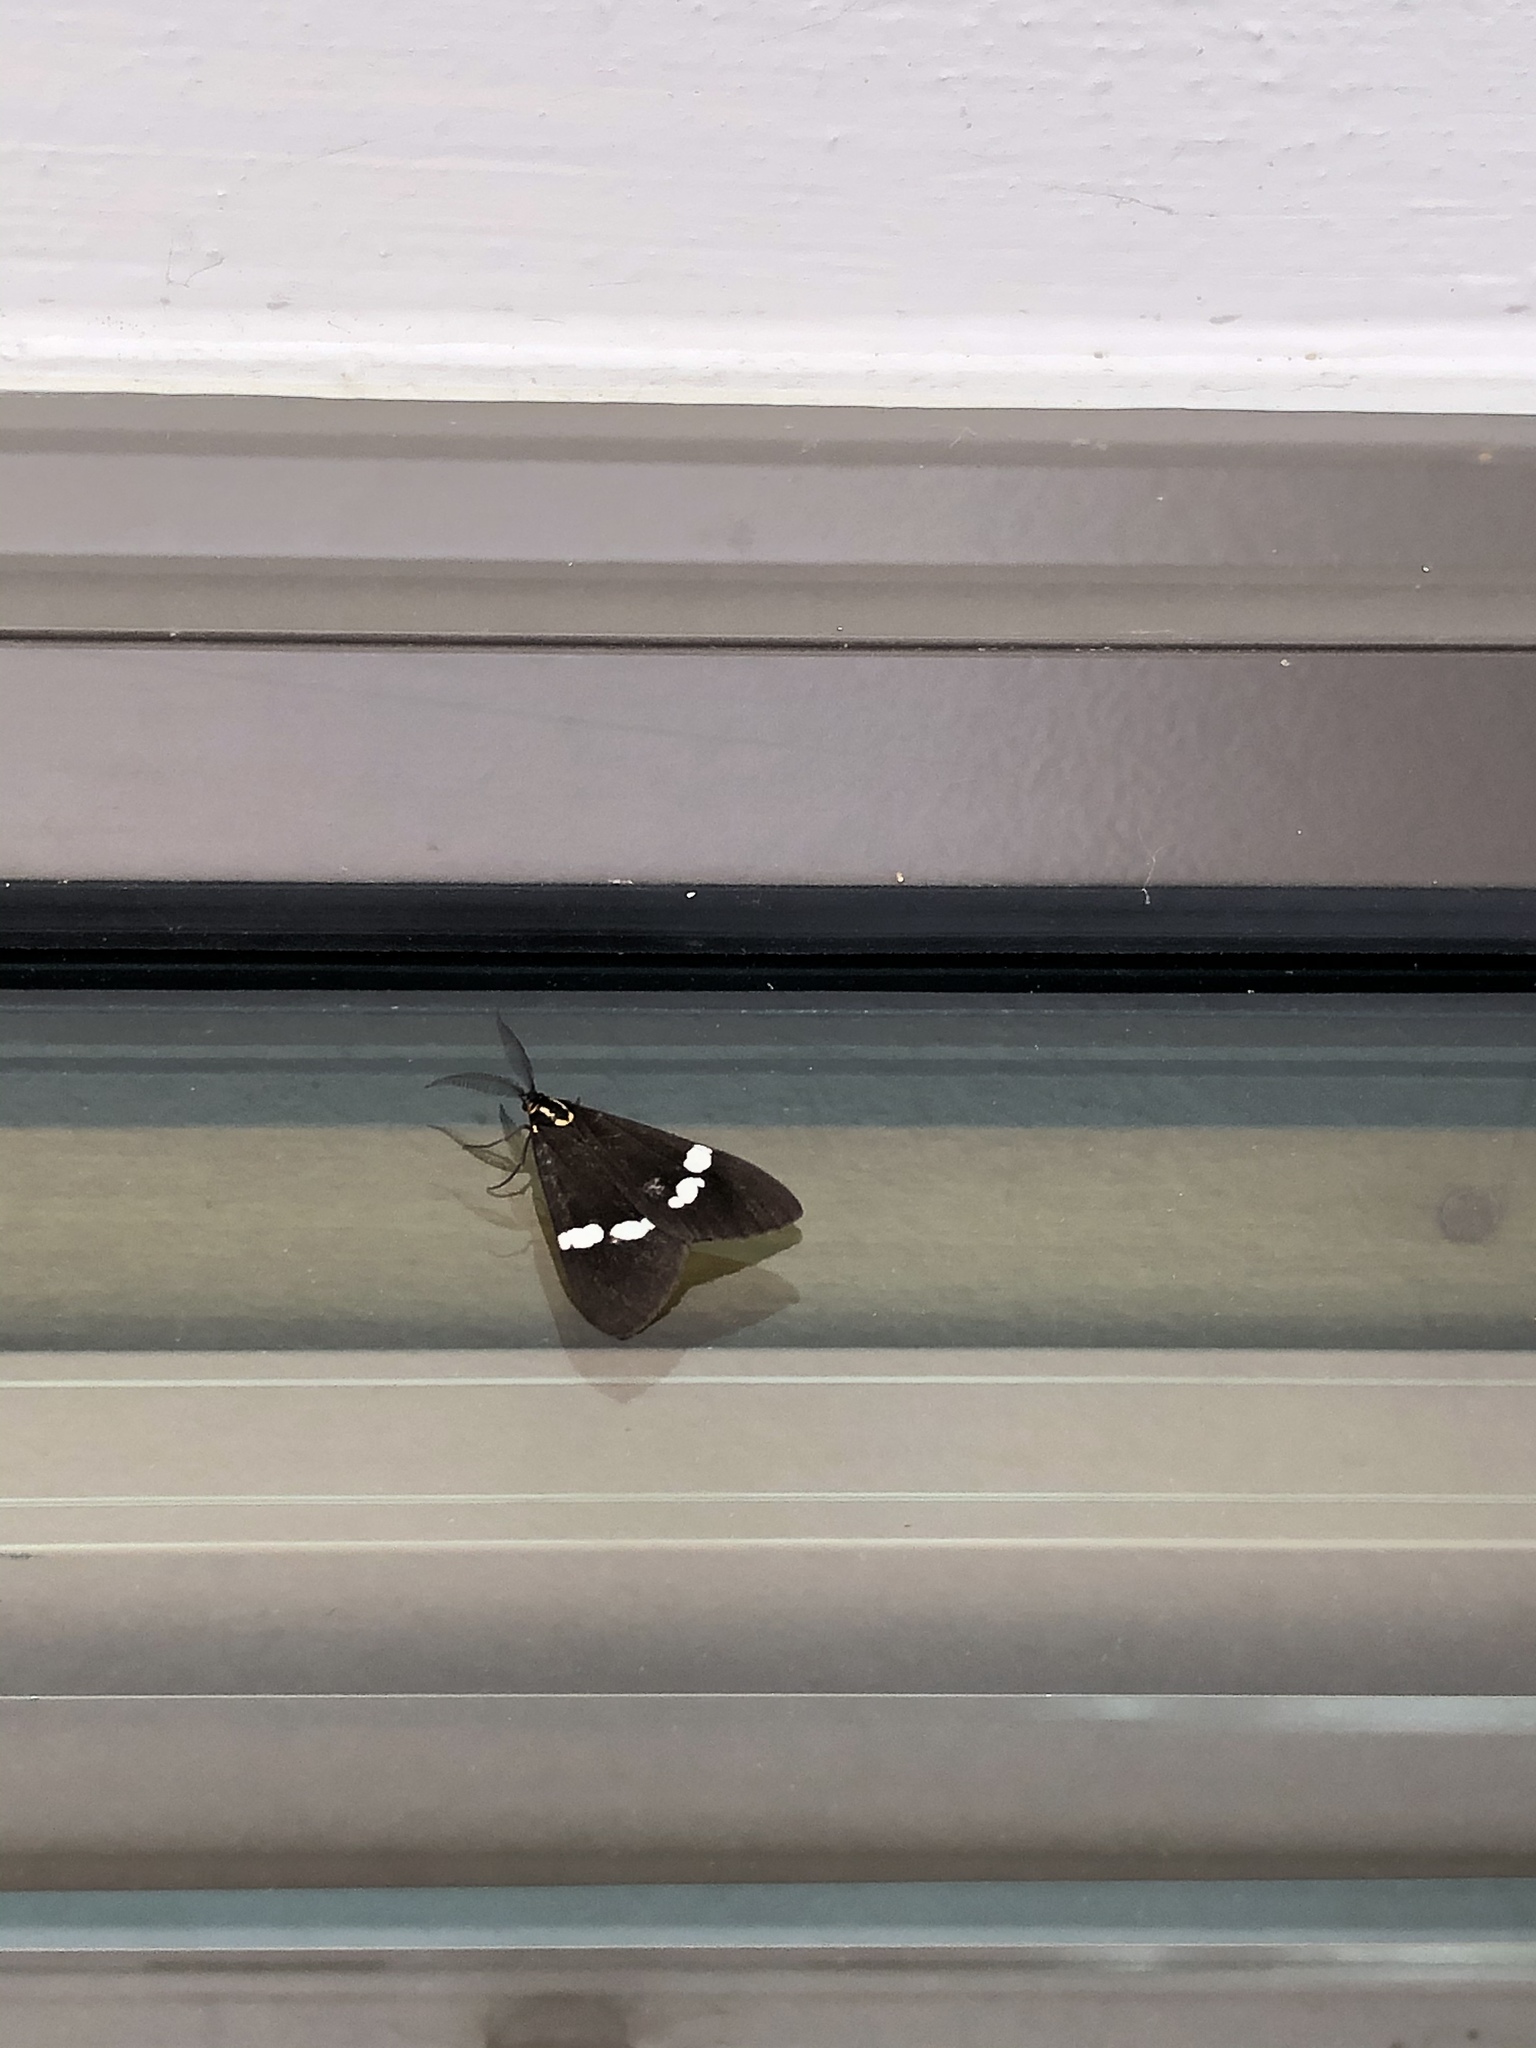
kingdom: Animalia
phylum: Arthropoda
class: Insecta
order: Lepidoptera
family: Erebidae
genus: Nyctemera
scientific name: Nyctemera annulatum
